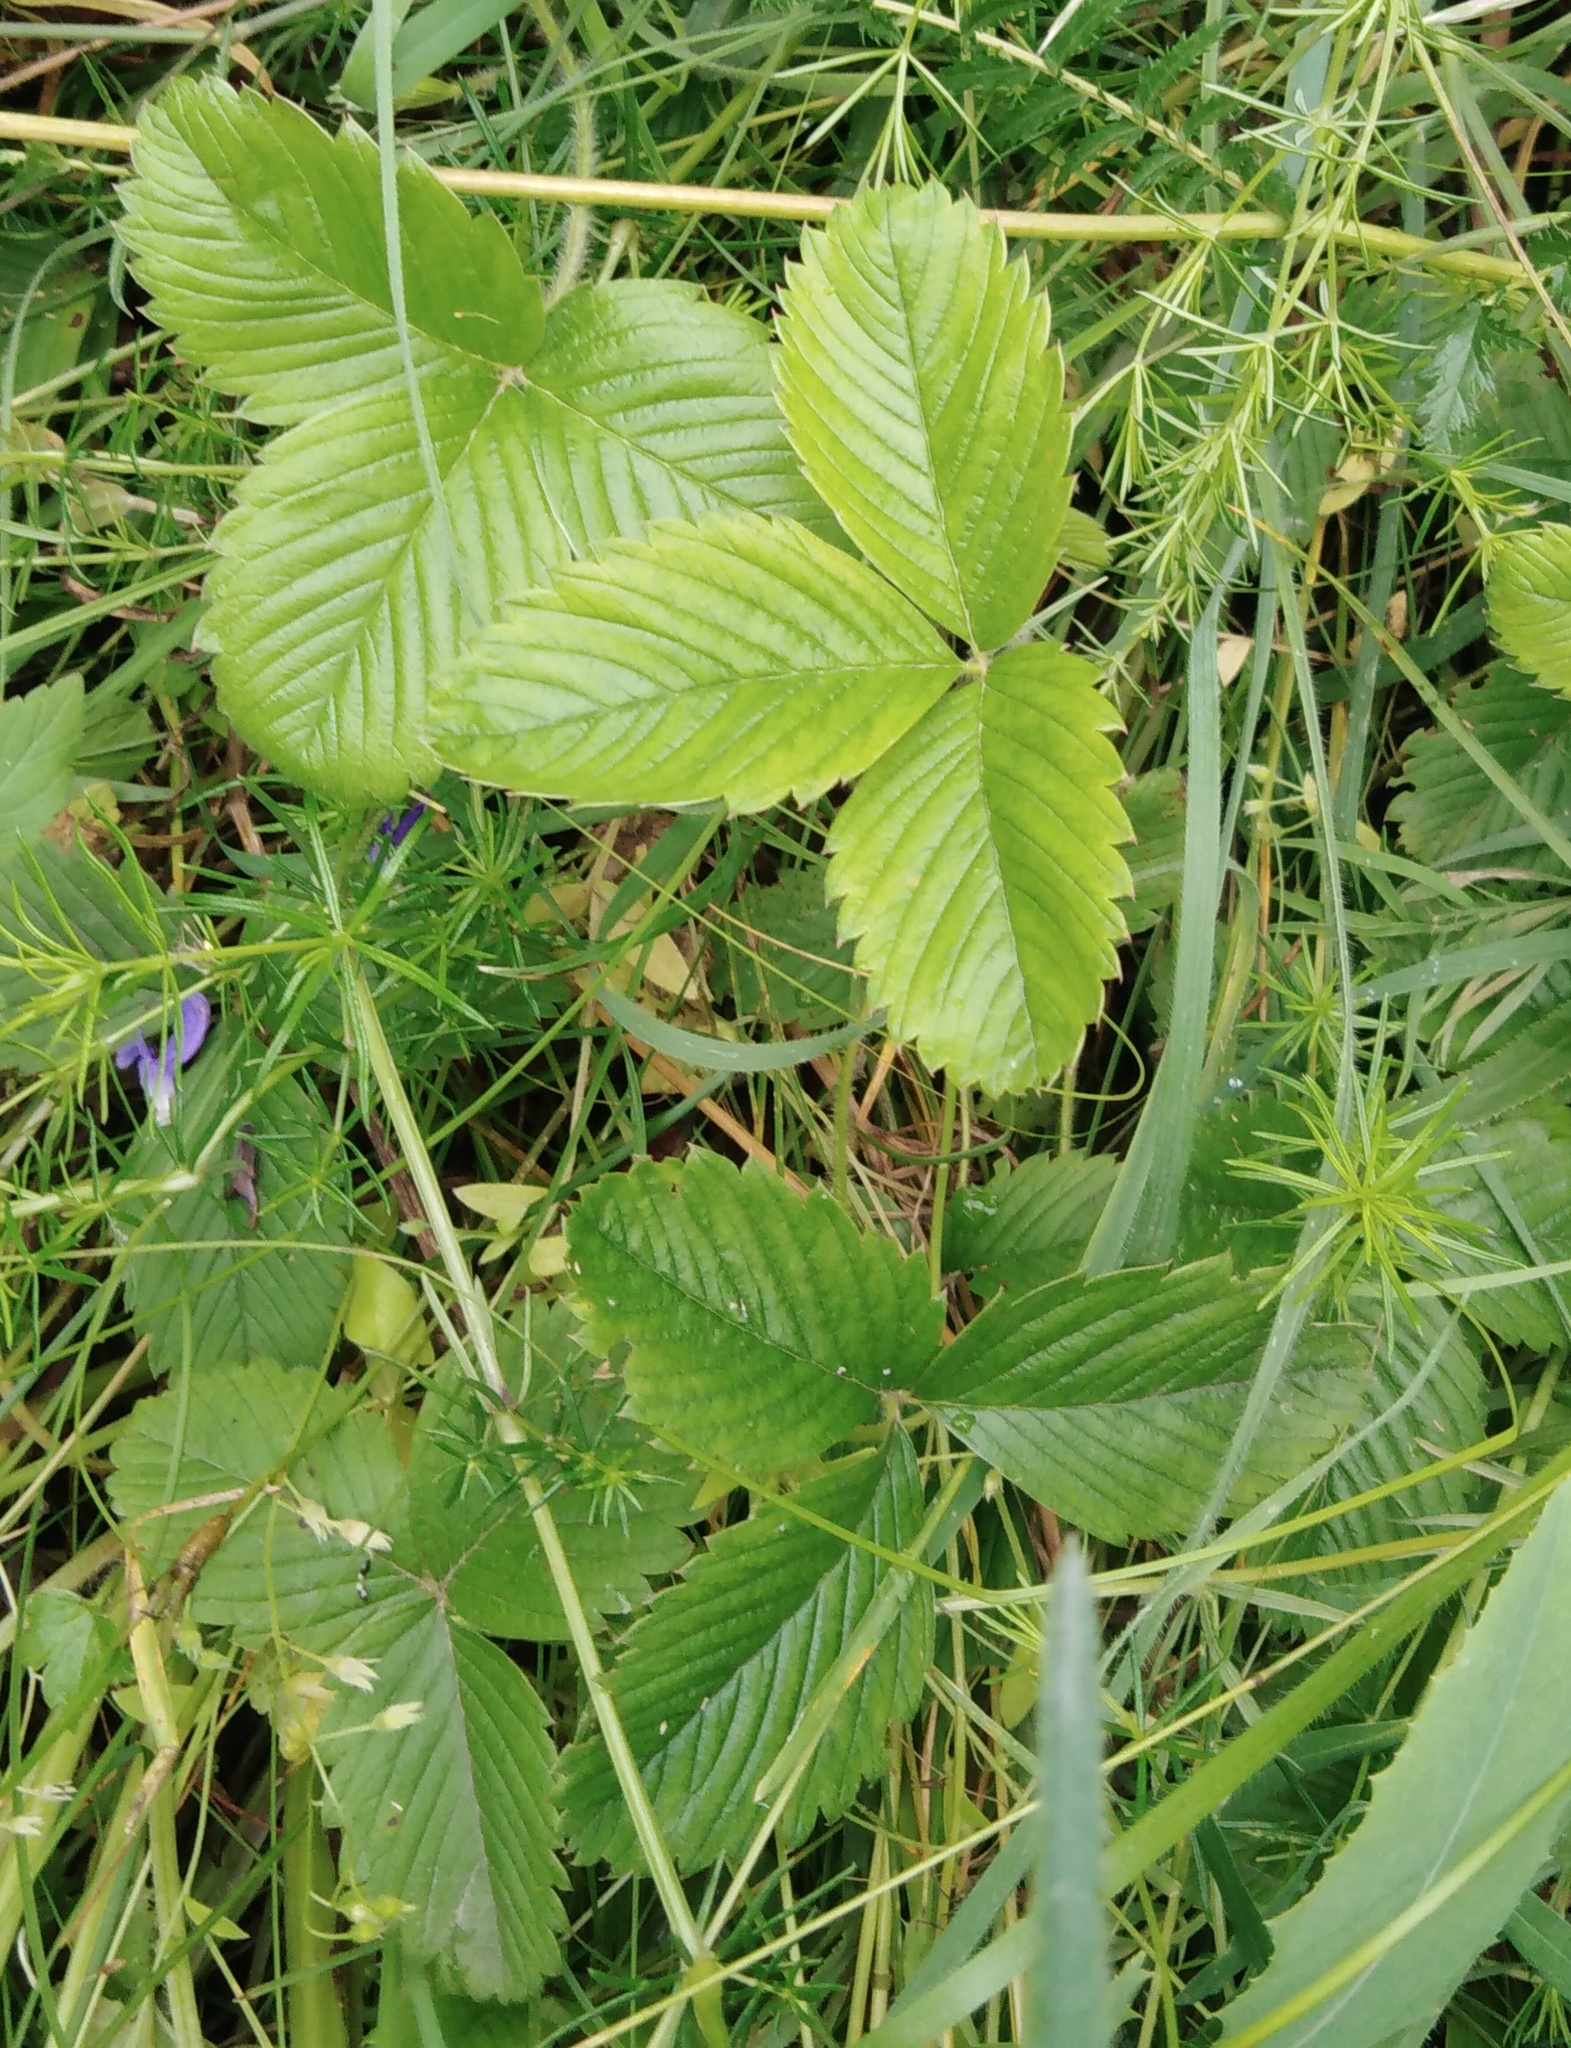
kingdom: Plantae
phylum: Tracheophyta
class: Magnoliopsida
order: Rosales
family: Rosaceae
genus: Fragaria
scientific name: Fragaria viridis
